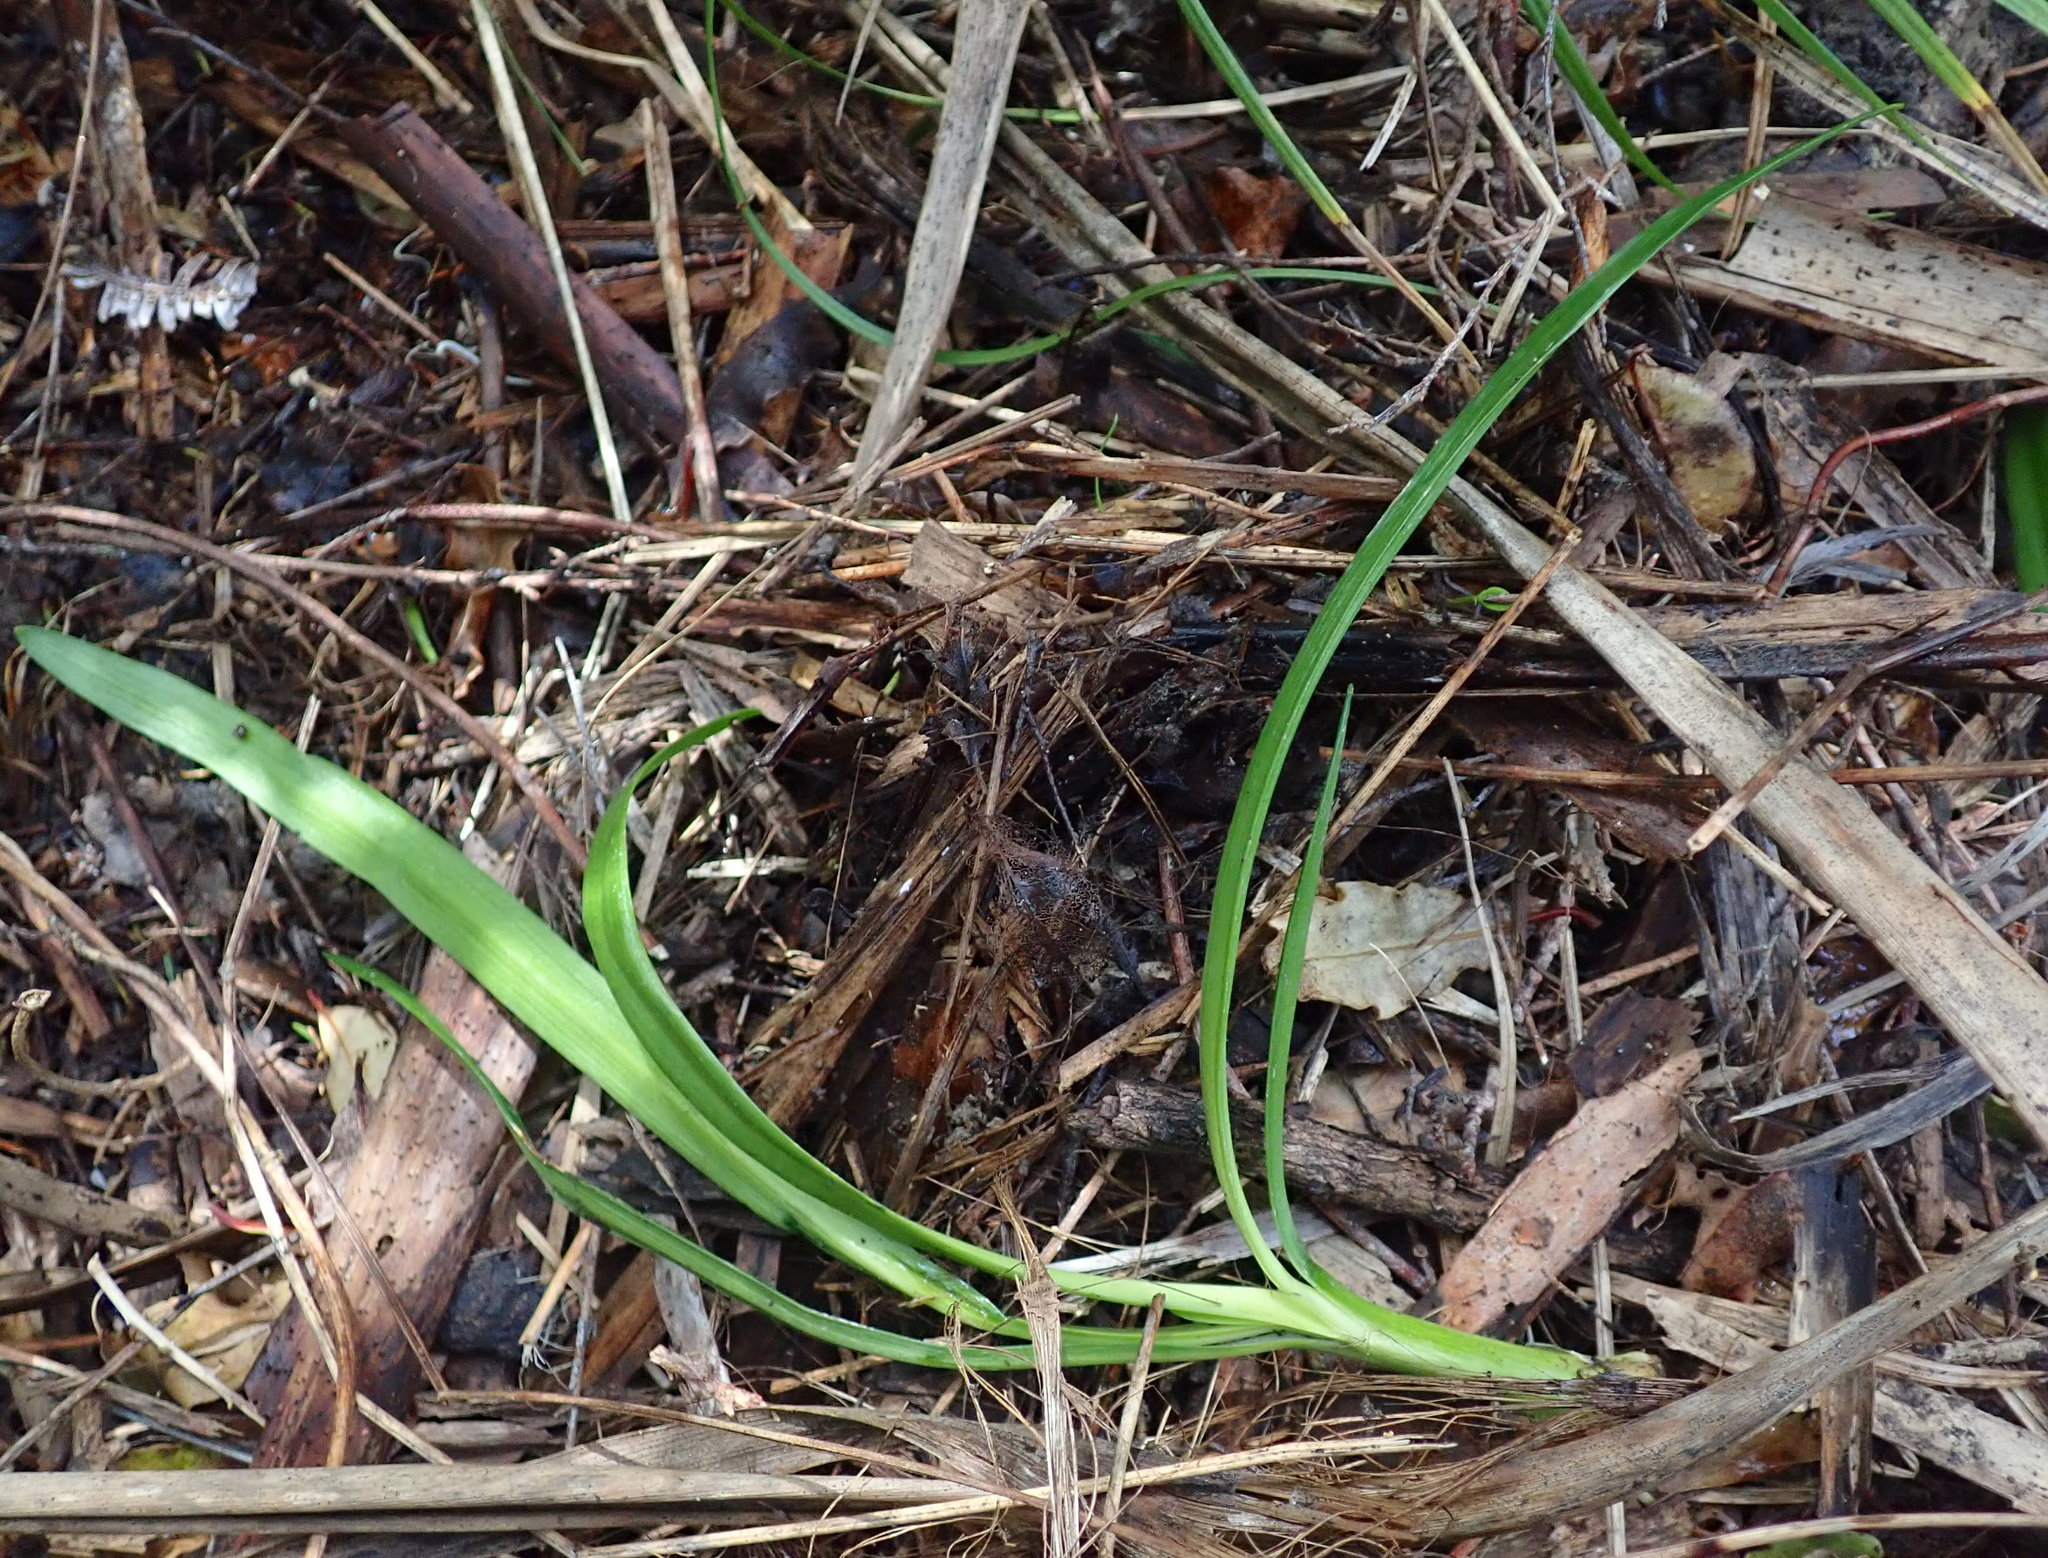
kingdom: Plantae
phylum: Tracheophyta
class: Liliopsida
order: Asparagales
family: Amaryllidaceae
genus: Agapanthus
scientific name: Agapanthus praecox
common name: African-lily
